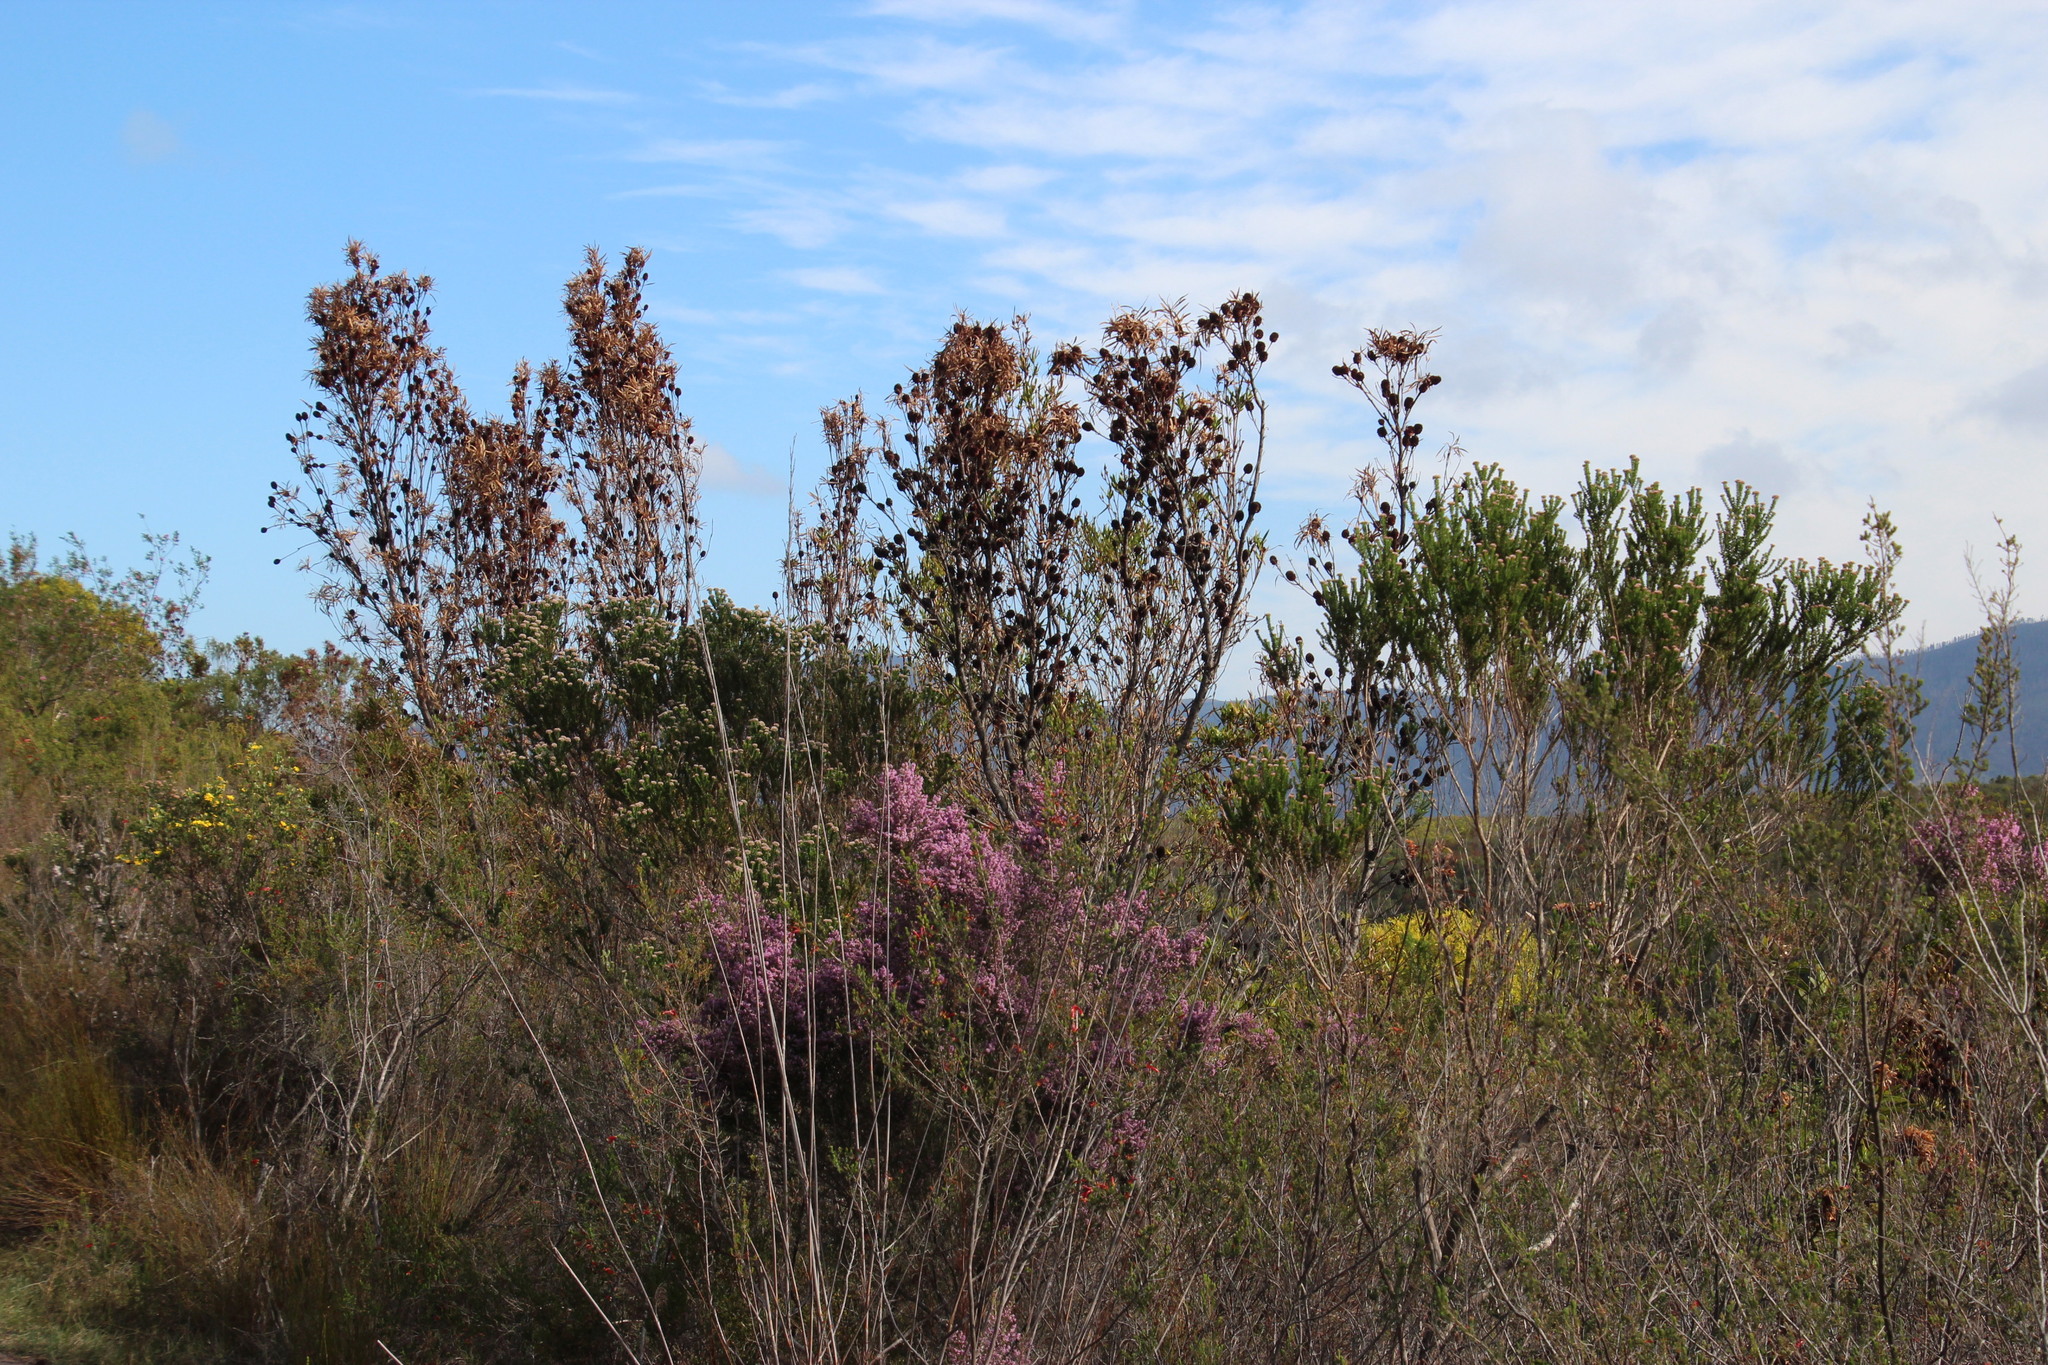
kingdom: Plantae
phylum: Tracheophyta
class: Magnoliopsida
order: Proteales
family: Proteaceae
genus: Leucadendron
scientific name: Leucadendron eucalyptifolium
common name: Gum-leaved conebush
